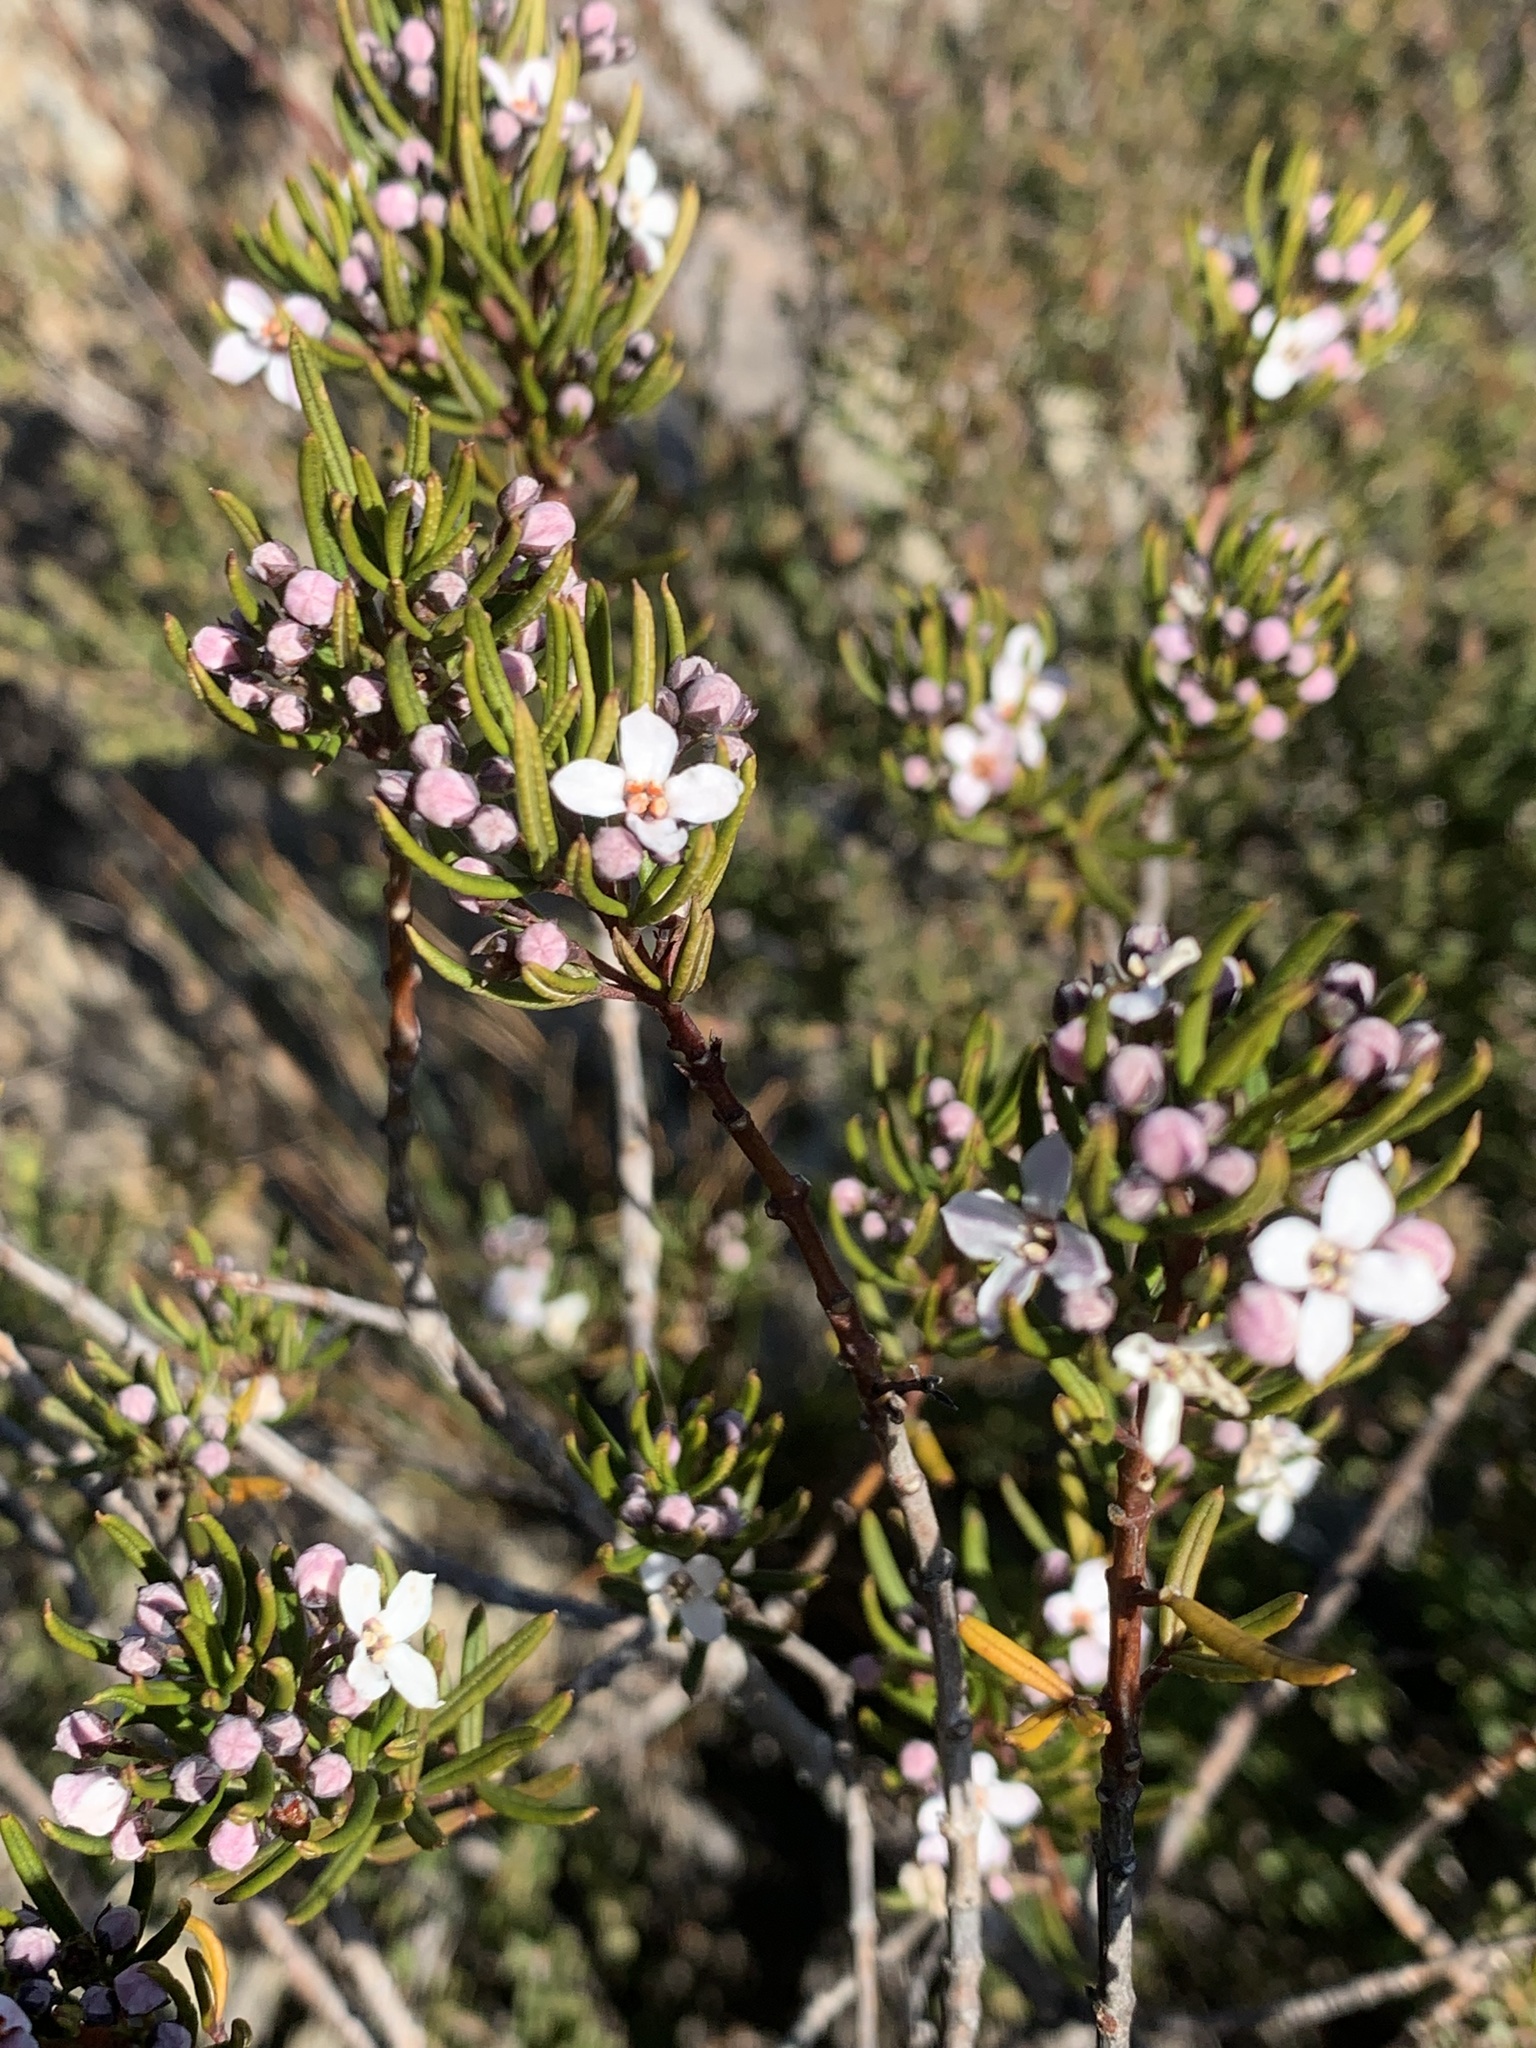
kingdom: Plantae
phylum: Tracheophyta
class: Magnoliopsida
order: Sapindales
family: Rutaceae
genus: Zieria
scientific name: Zieria laevigata
